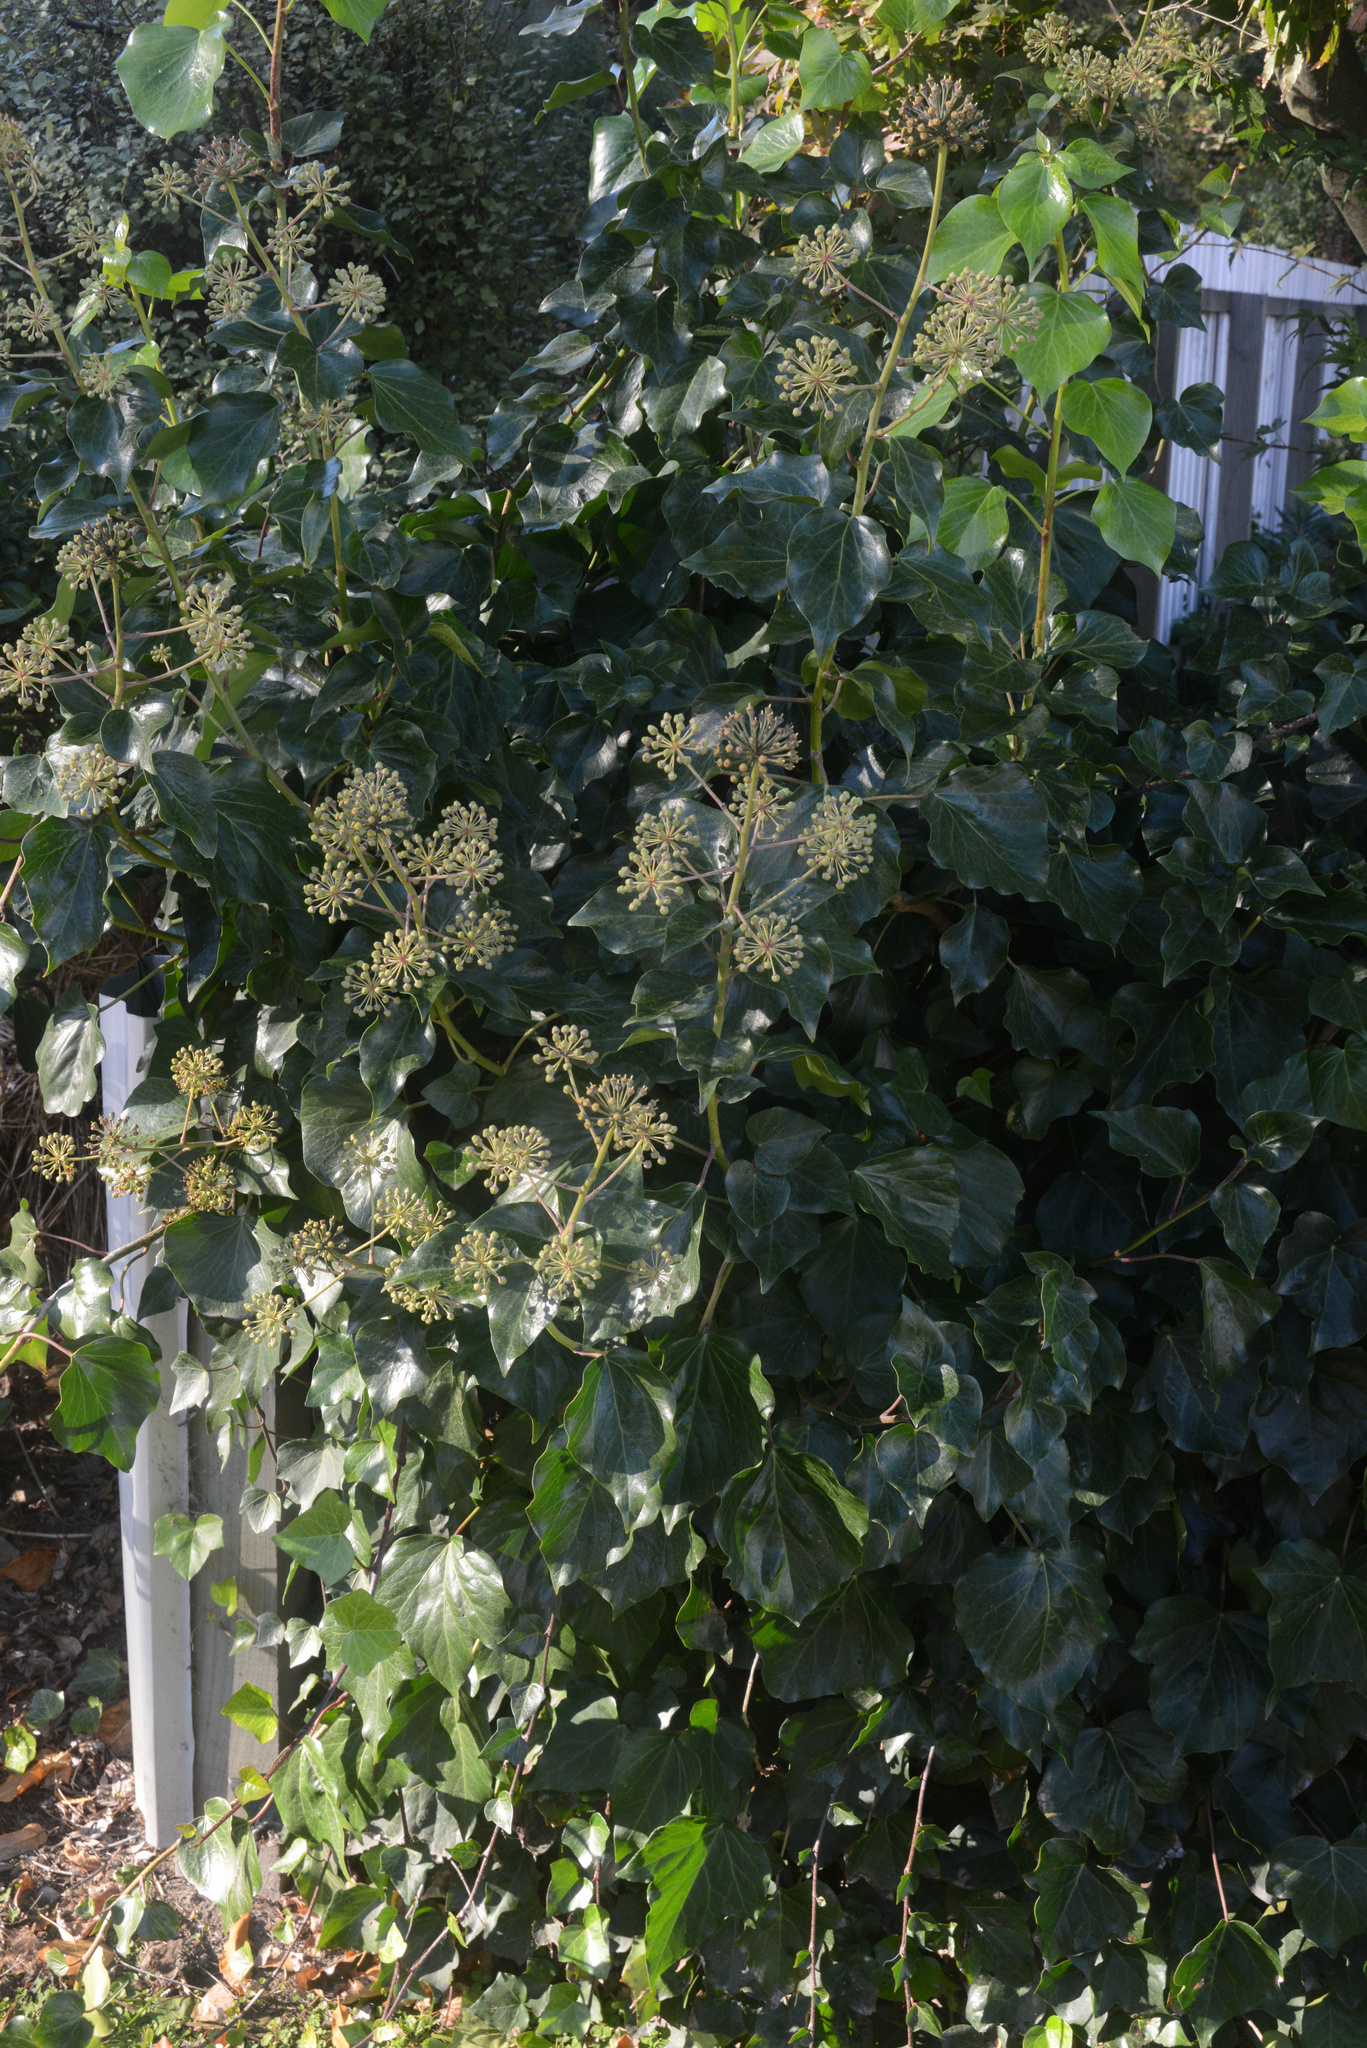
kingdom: Plantae
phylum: Tracheophyta
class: Magnoliopsida
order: Apiales
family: Araliaceae
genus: Hedera
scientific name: Hedera helix
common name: Ivy
